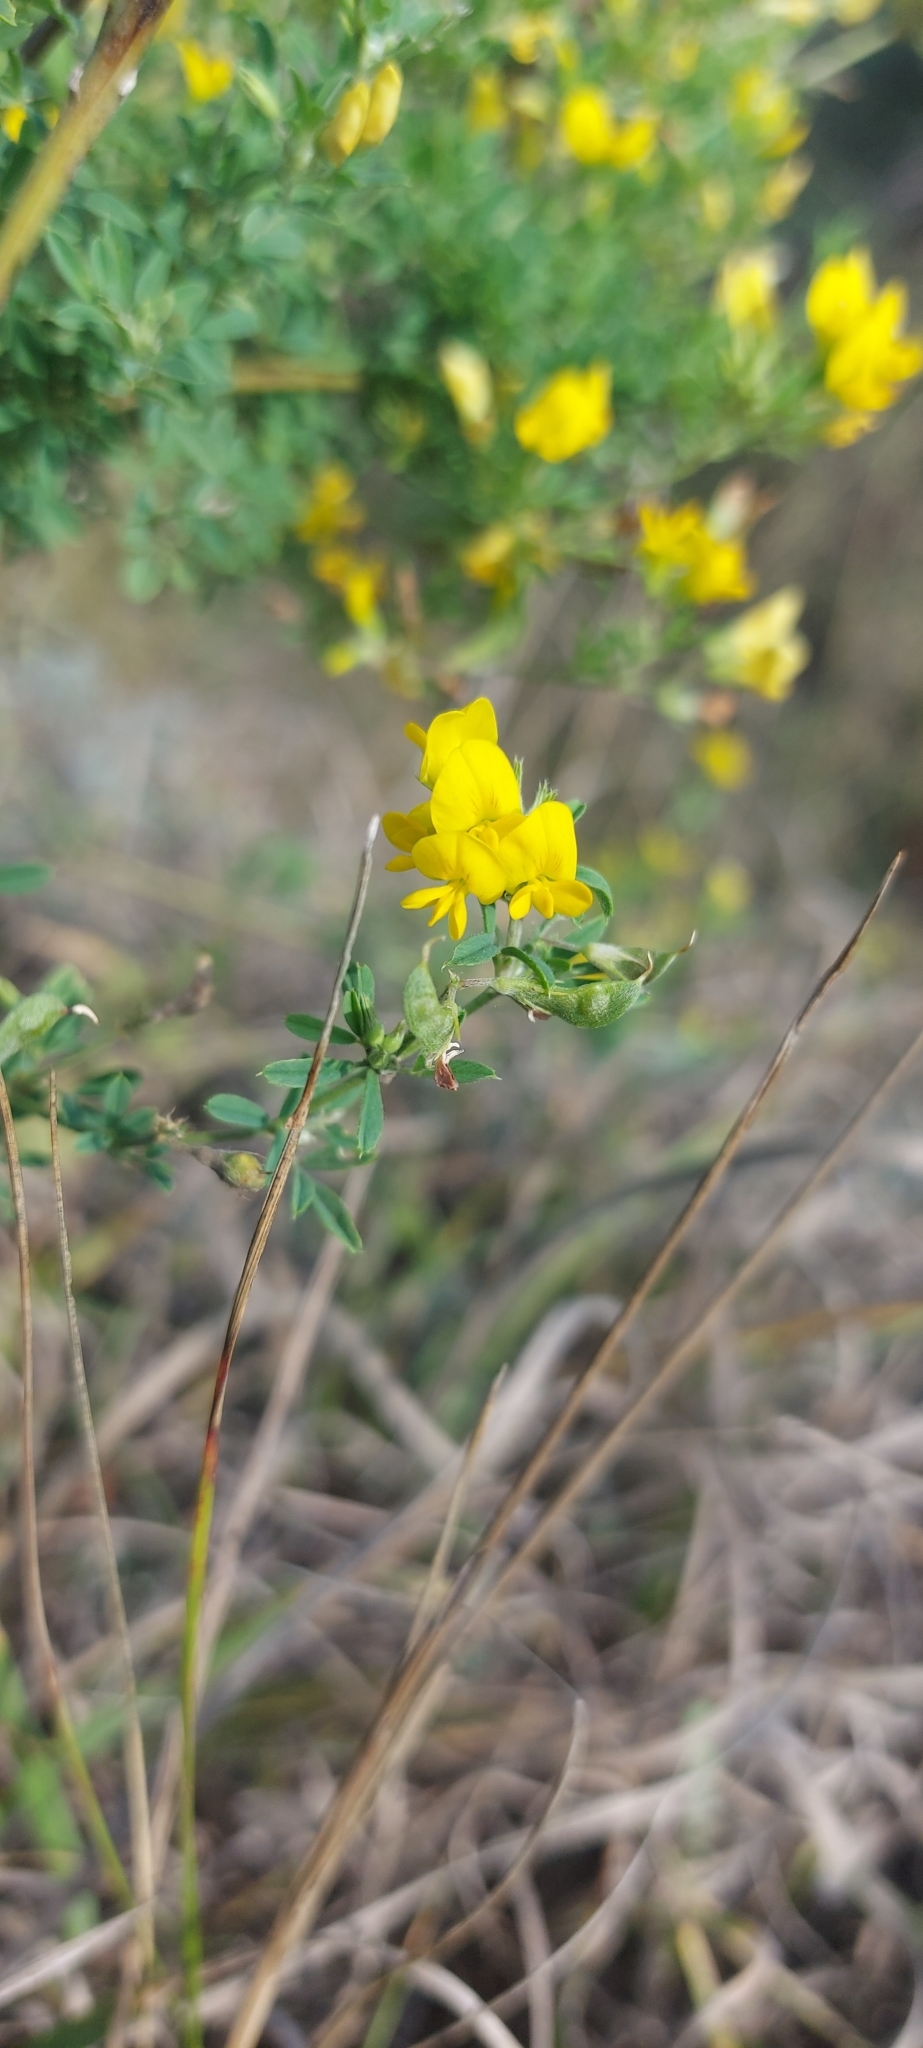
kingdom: Plantae
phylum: Tracheophyta
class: Magnoliopsida
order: Fabales
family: Fabaceae
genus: Medicago
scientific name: Medicago falcata
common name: Sickle medick
